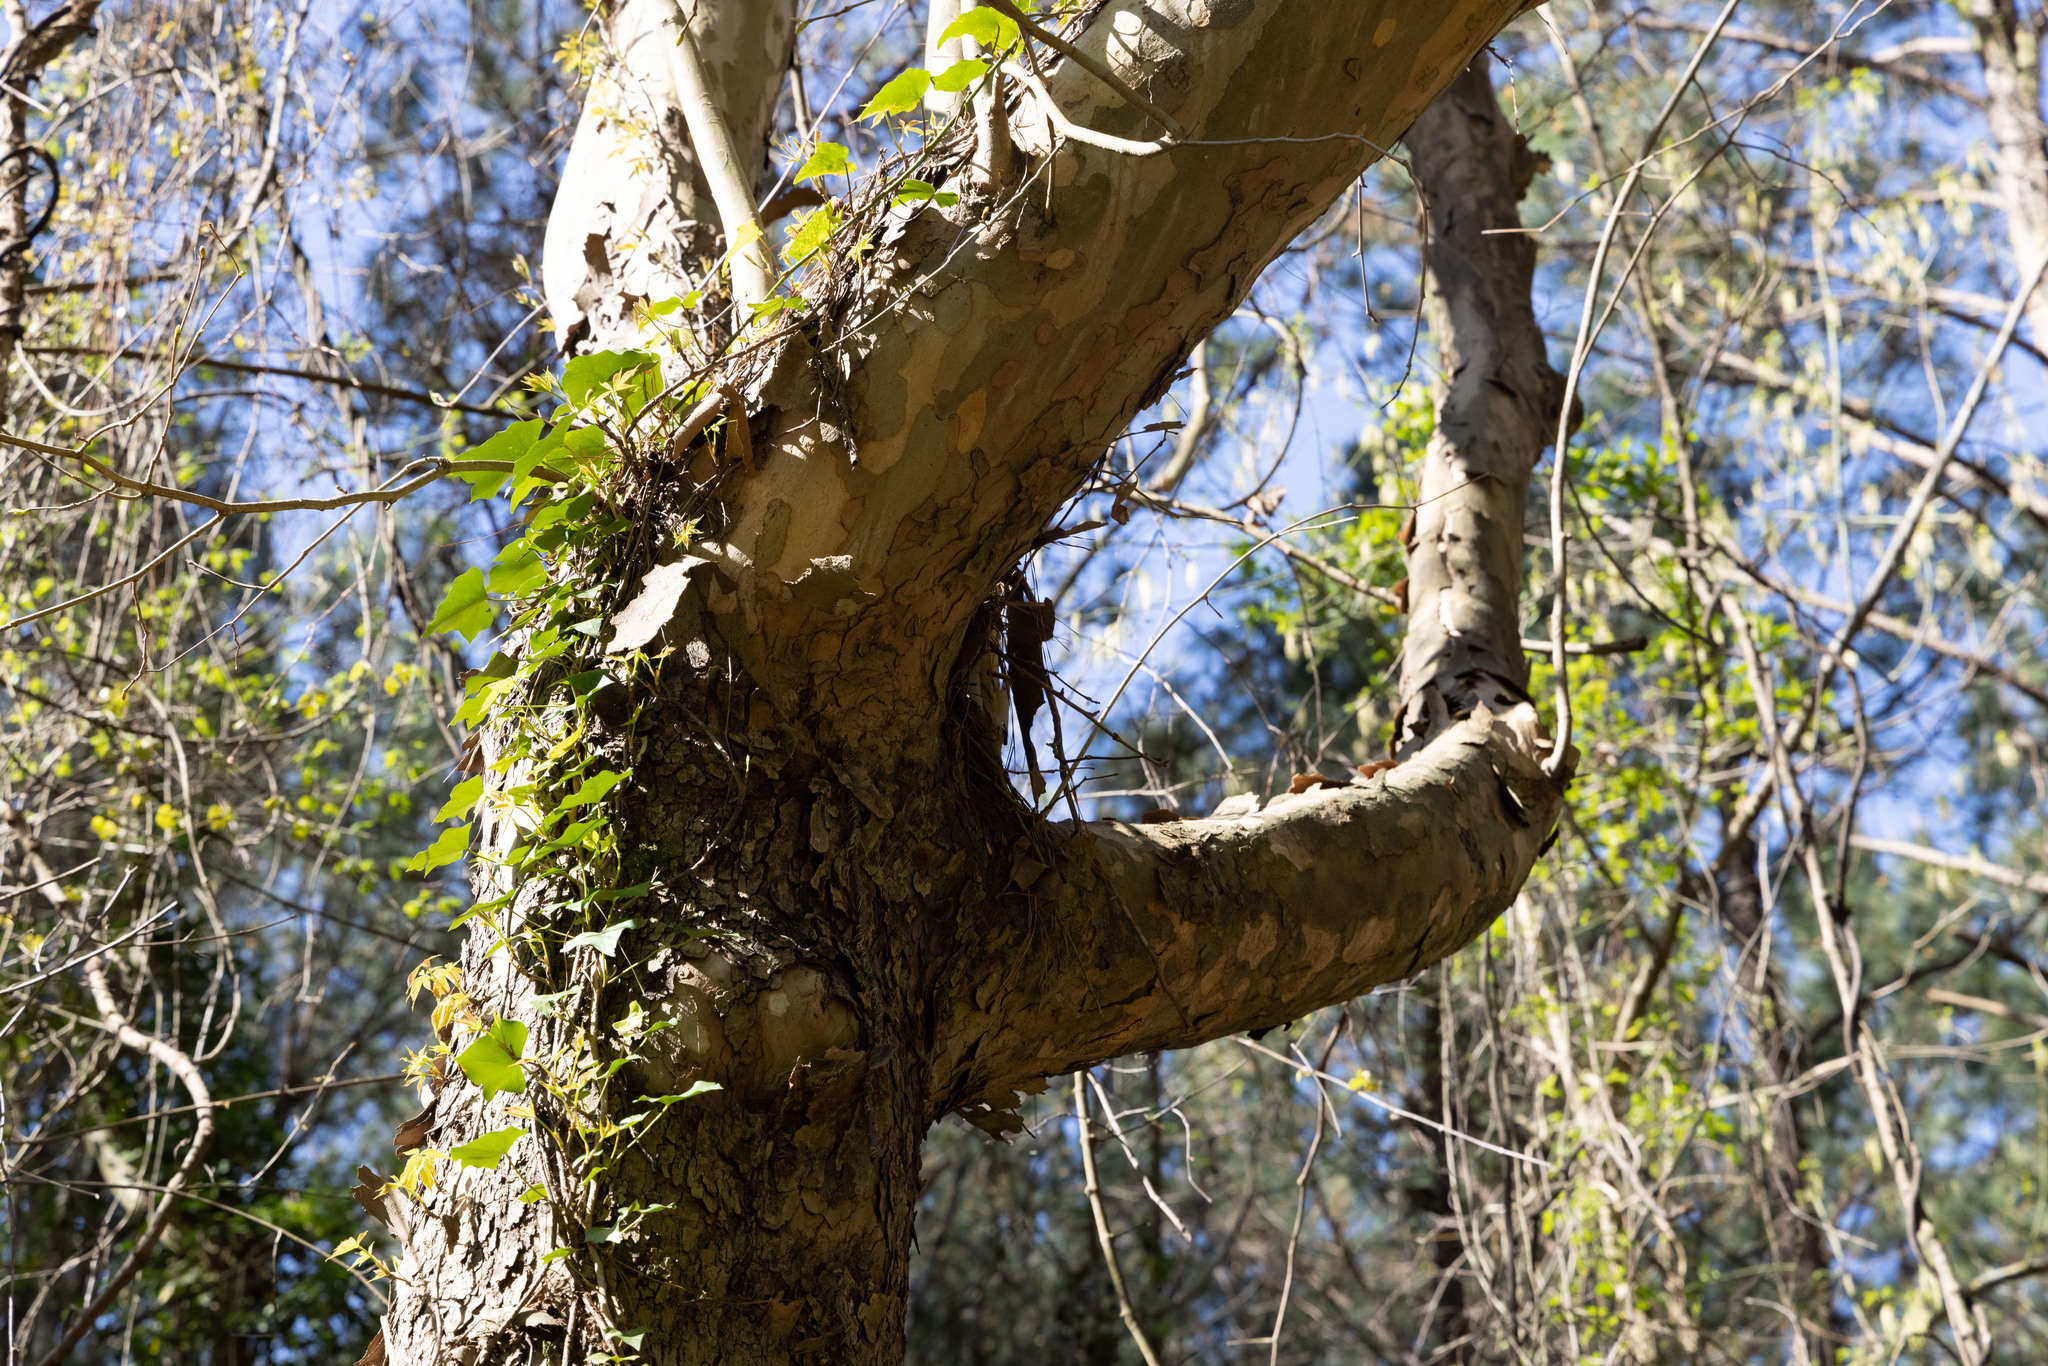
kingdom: Plantae
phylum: Tracheophyta
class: Magnoliopsida
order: Proteales
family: Platanaceae
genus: Platanus
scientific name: Platanus occidentalis
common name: American sycamore
